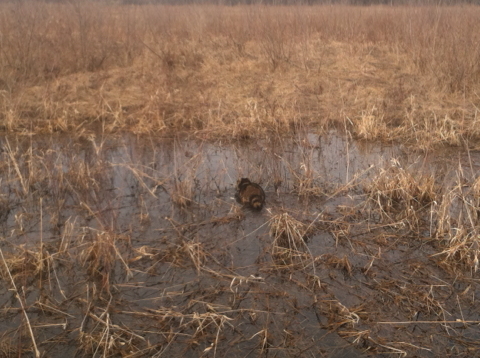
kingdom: Animalia
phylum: Chordata
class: Mammalia
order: Carnivora
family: Procyonidae
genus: Procyon
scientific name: Procyon lotor
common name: Raccoon
